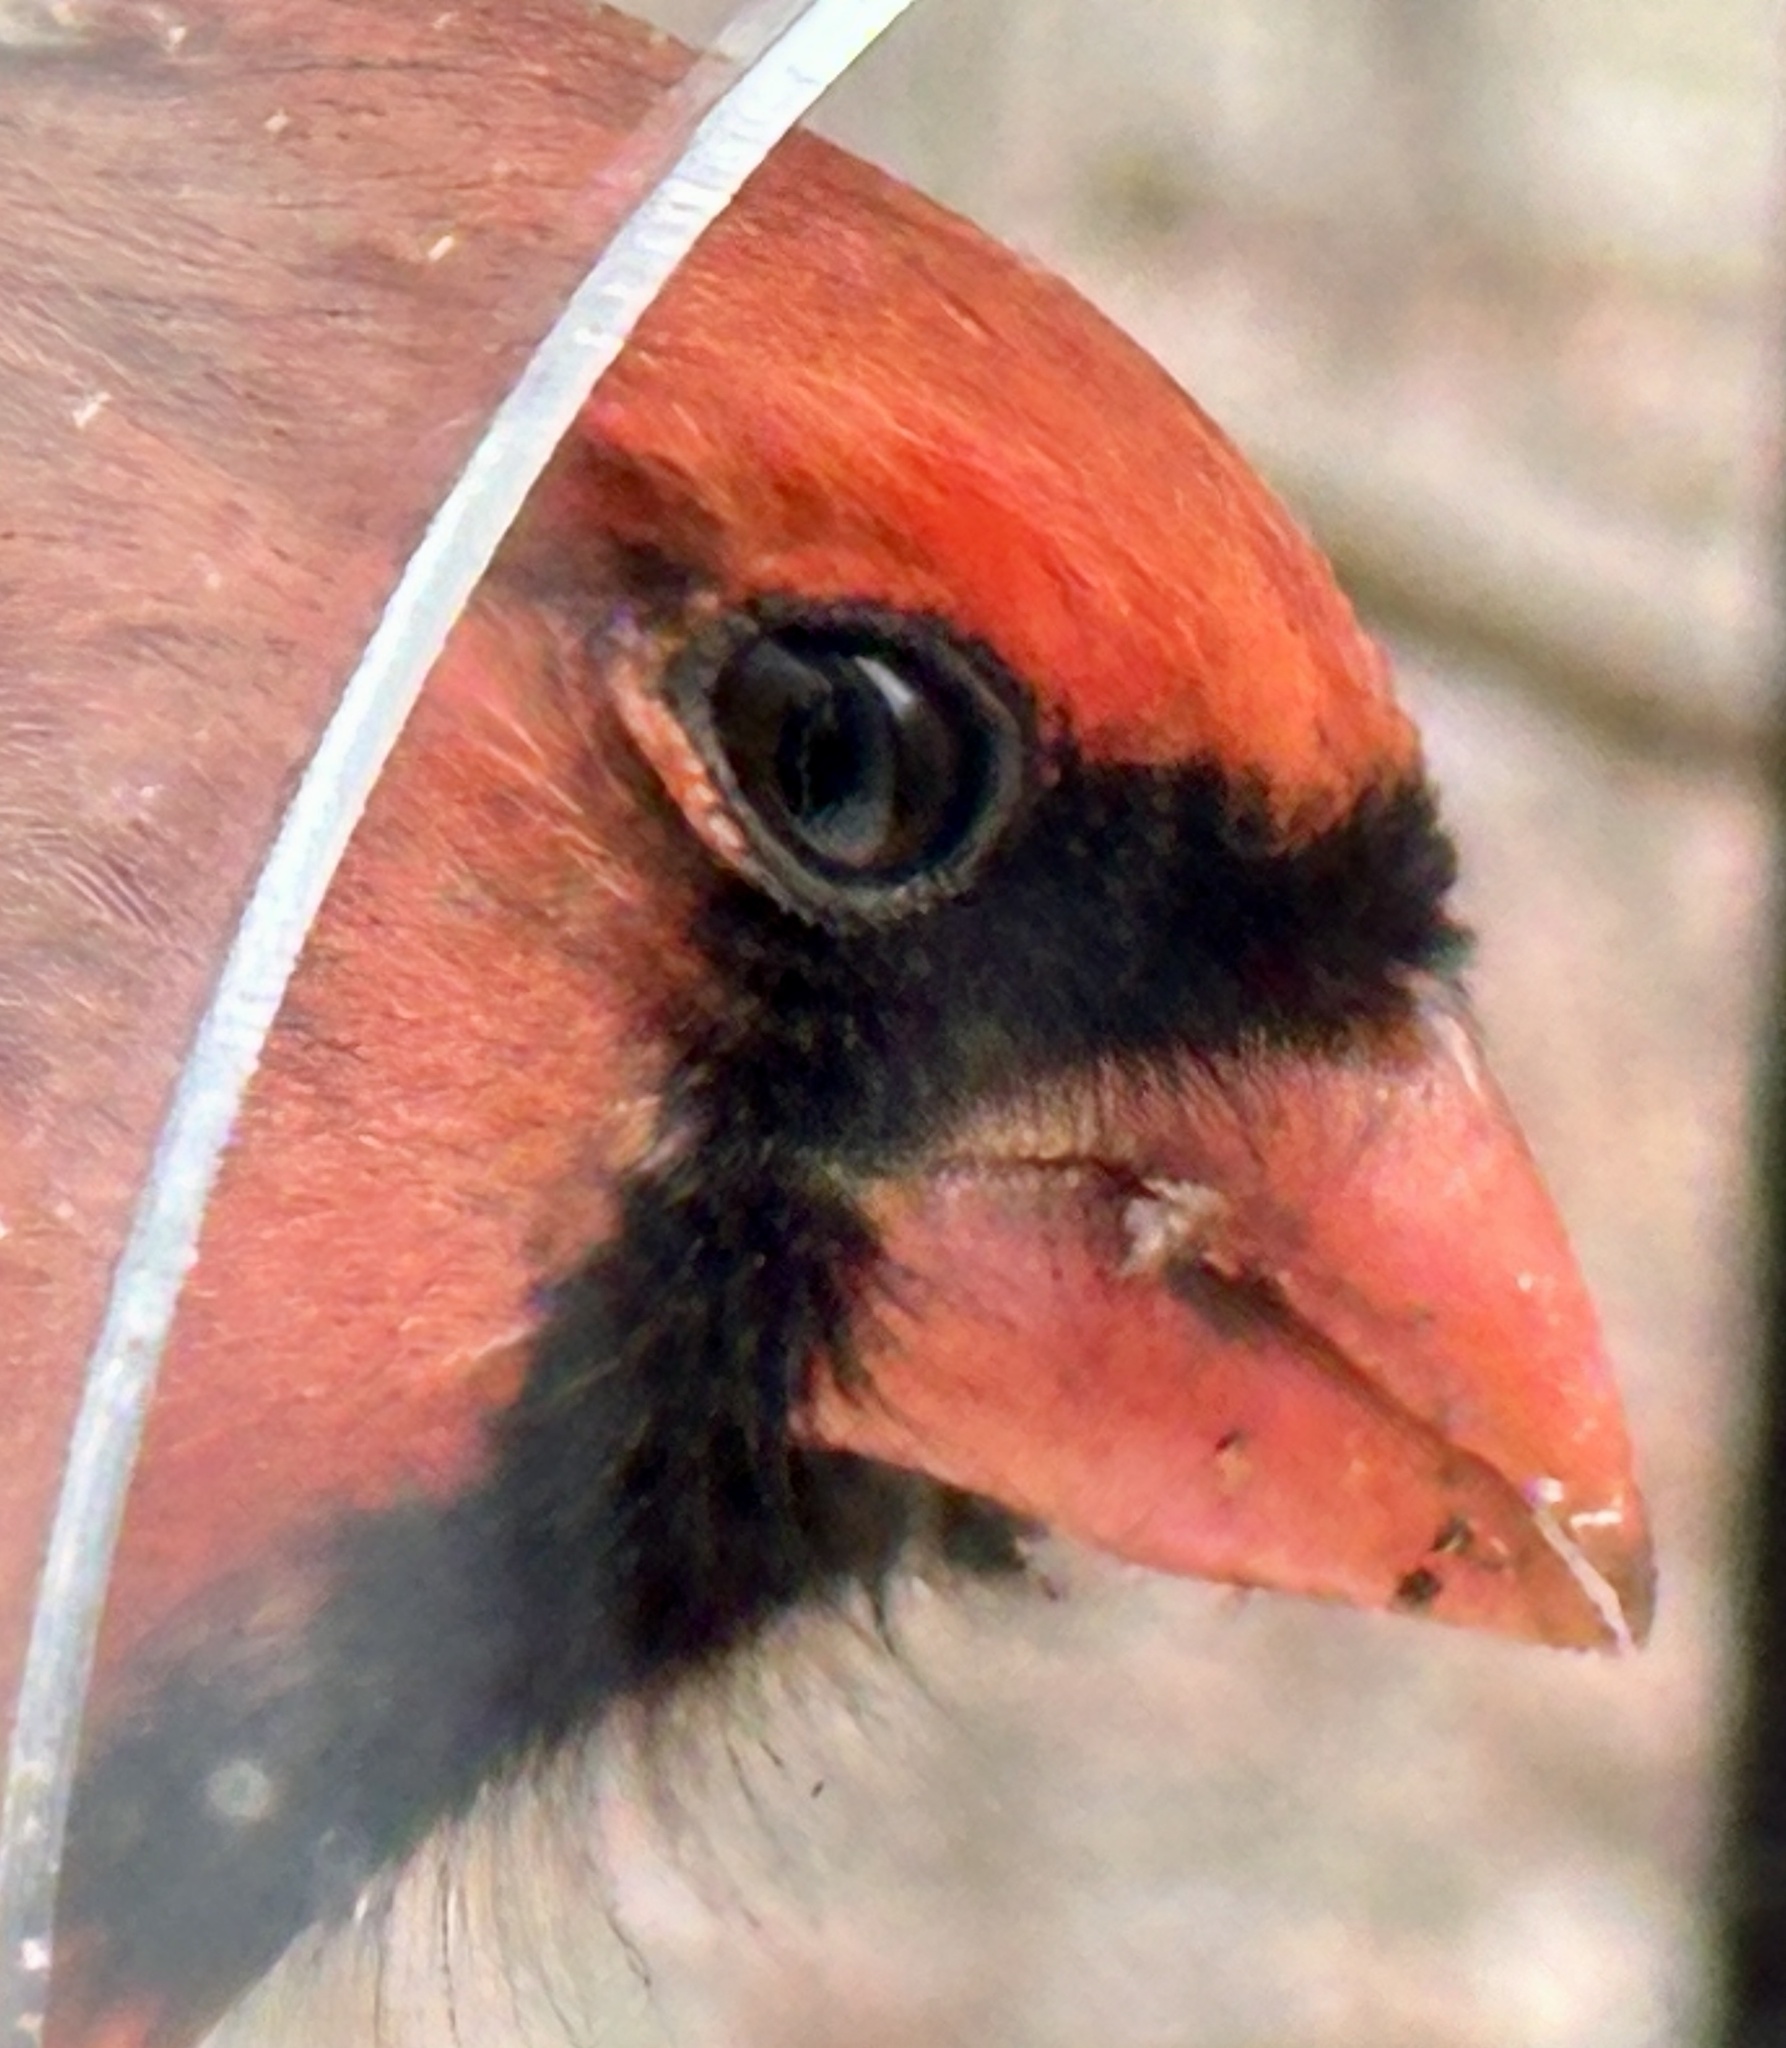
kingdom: Animalia
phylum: Chordata
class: Aves
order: Passeriformes
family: Cardinalidae
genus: Cardinalis
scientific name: Cardinalis cardinalis
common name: Northern cardinal
